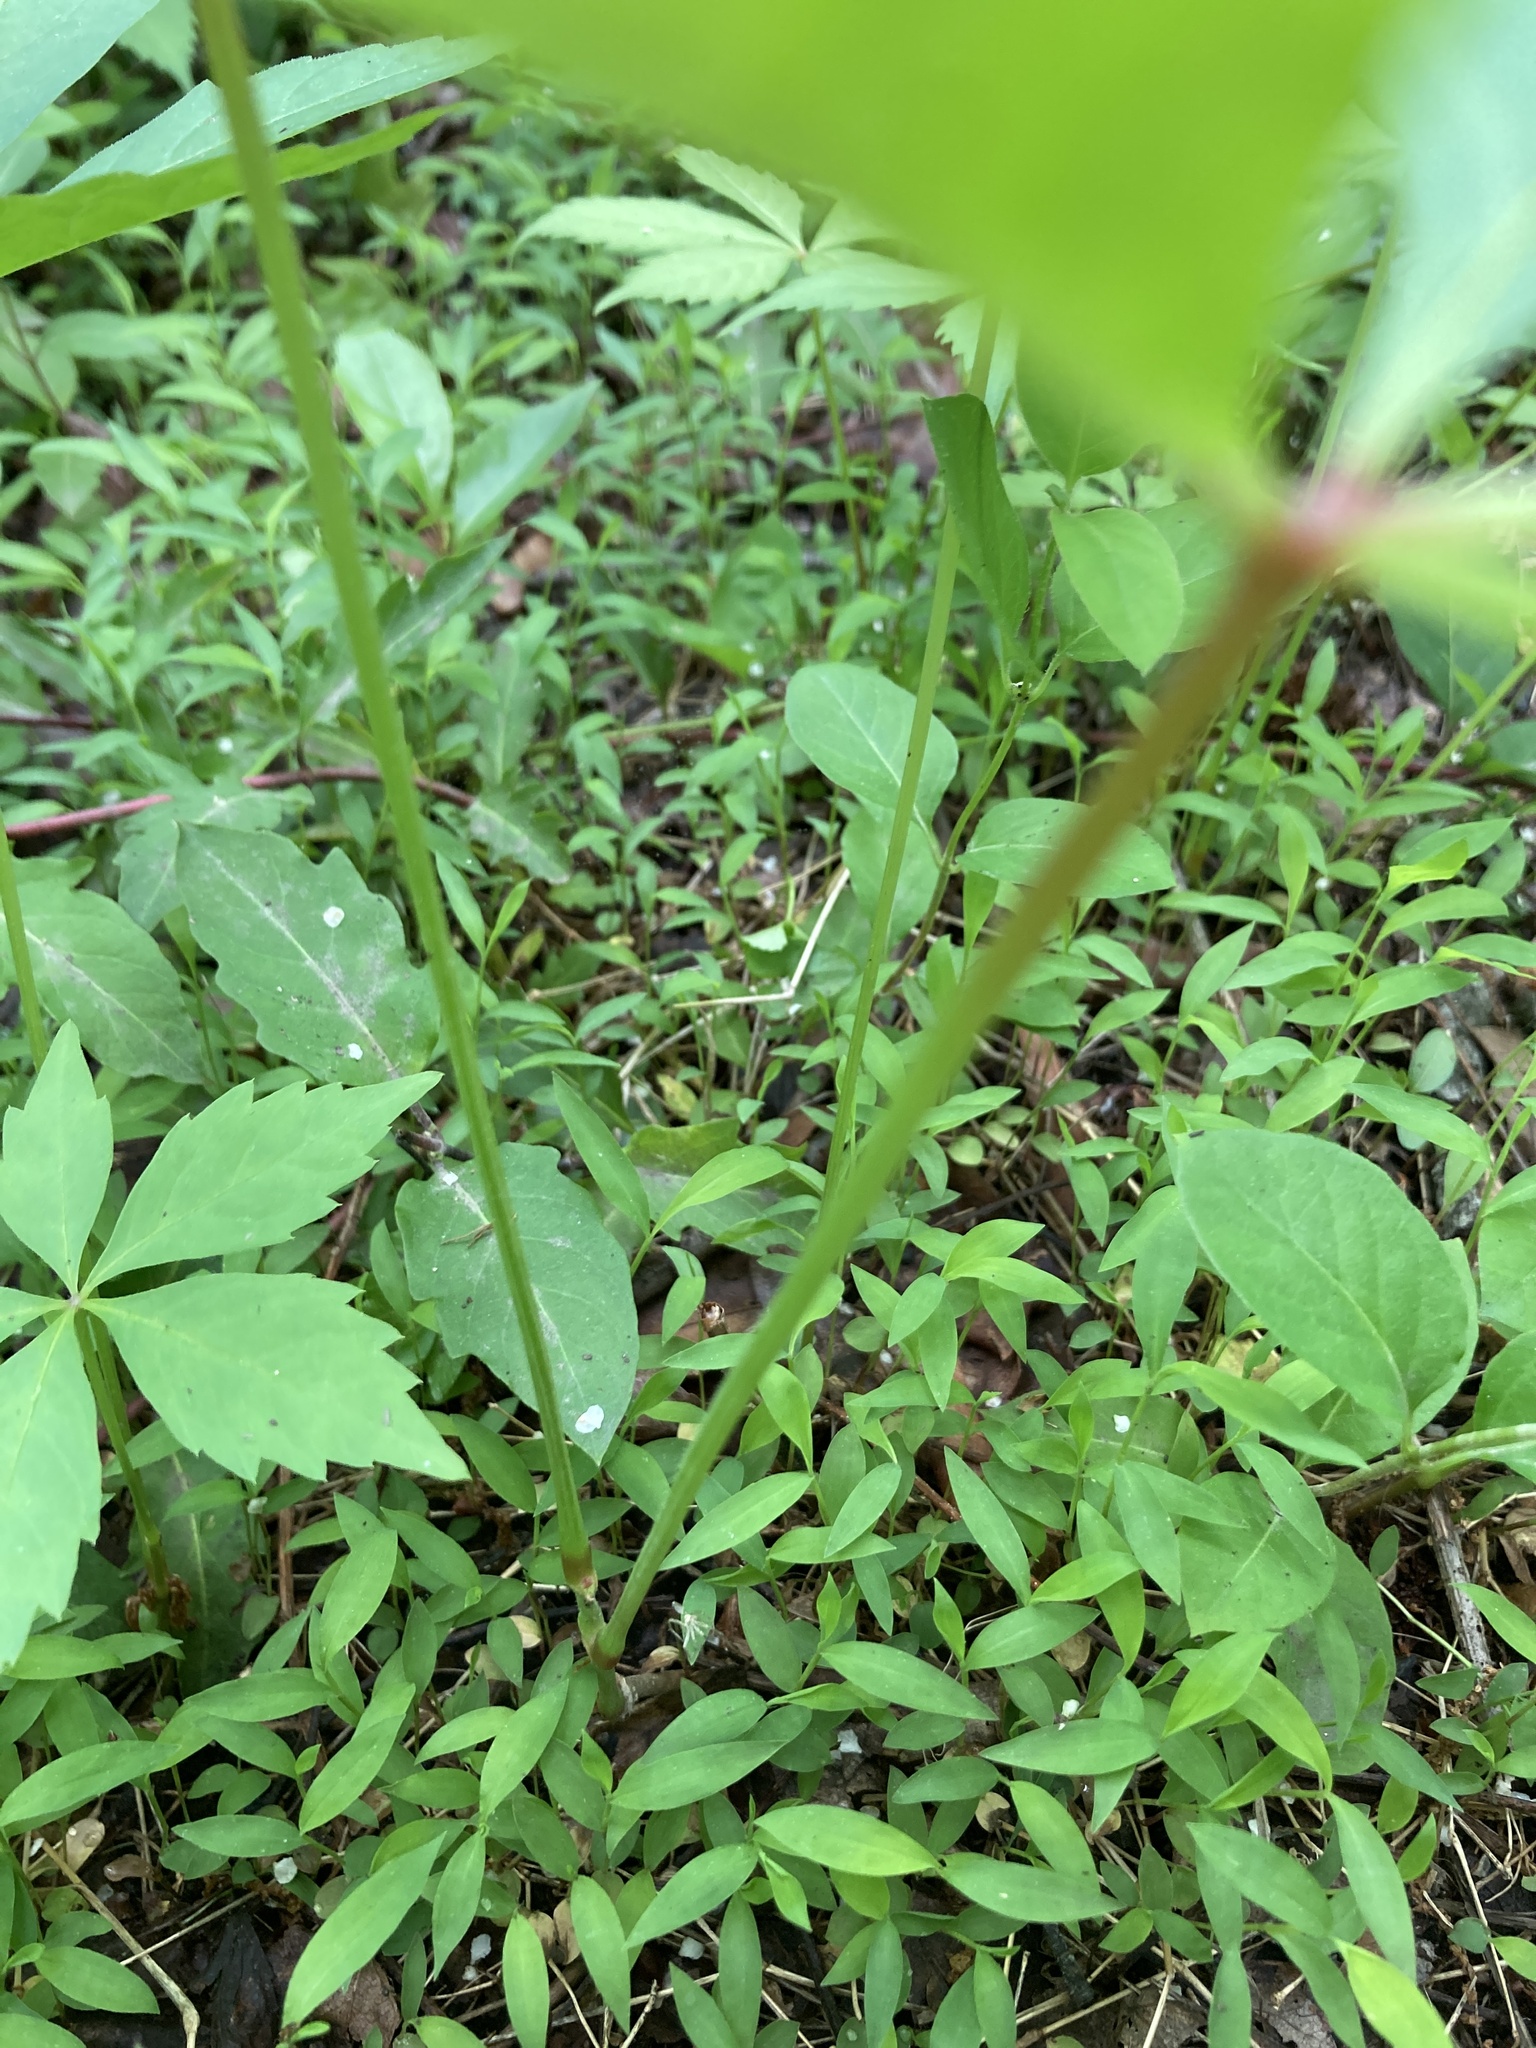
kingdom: Plantae
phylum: Tracheophyta
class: Magnoliopsida
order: Vitales
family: Vitaceae
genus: Parthenocissus
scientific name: Parthenocissus quinquefolia
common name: Virginia-creeper
